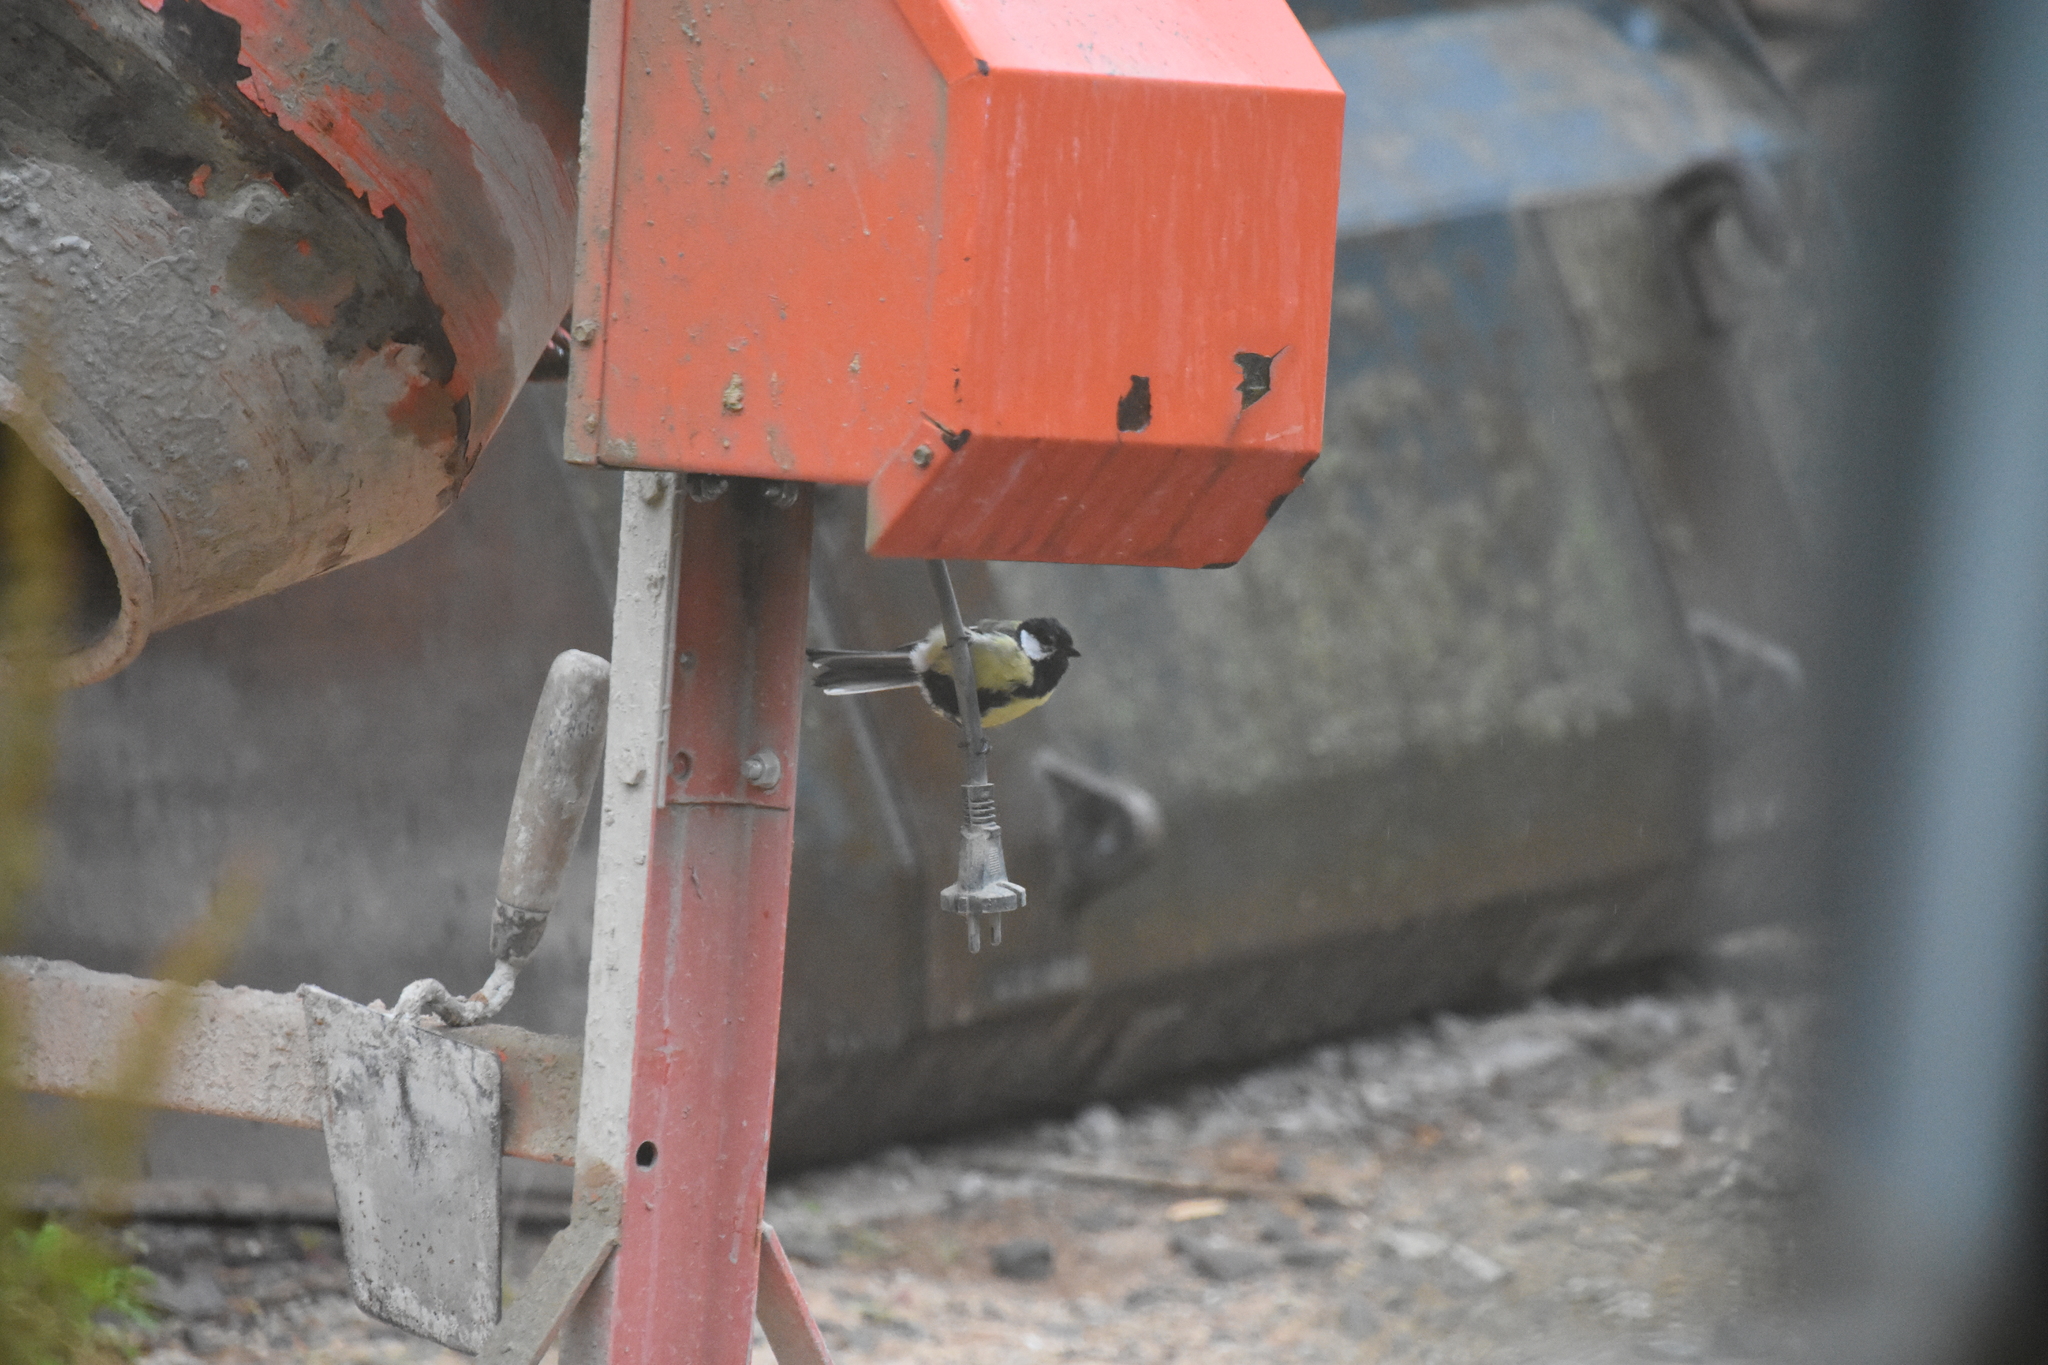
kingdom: Animalia
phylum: Chordata
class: Aves
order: Passeriformes
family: Paridae
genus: Parus
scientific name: Parus major
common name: Great tit
